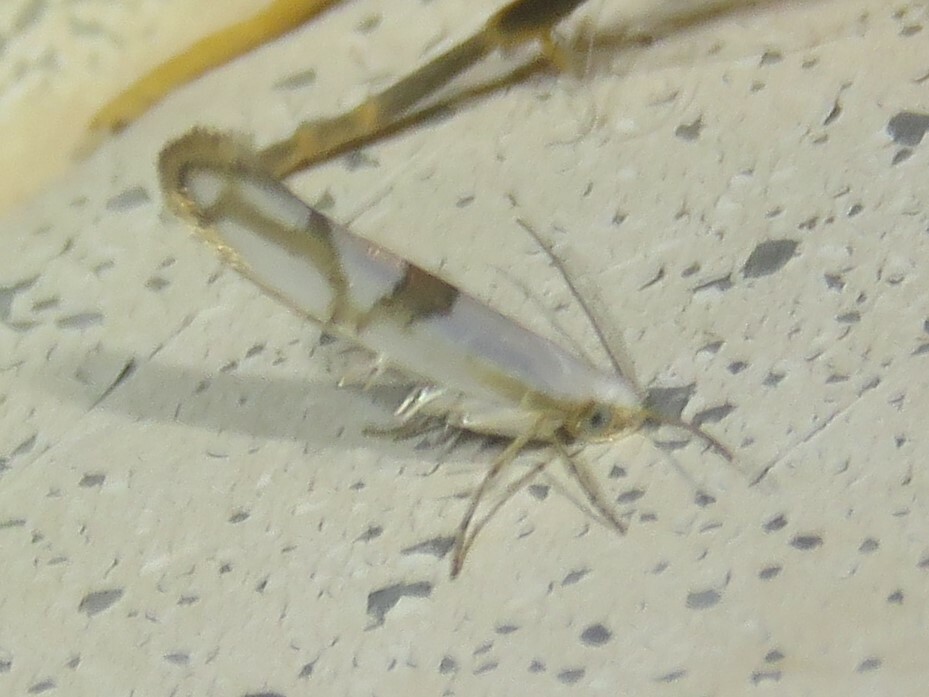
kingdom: Animalia
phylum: Arthropoda
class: Insecta
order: Lepidoptera
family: Argyresthiidae
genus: Argyresthia
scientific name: Argyresthia oreasella
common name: Cherry shoot borer moth
